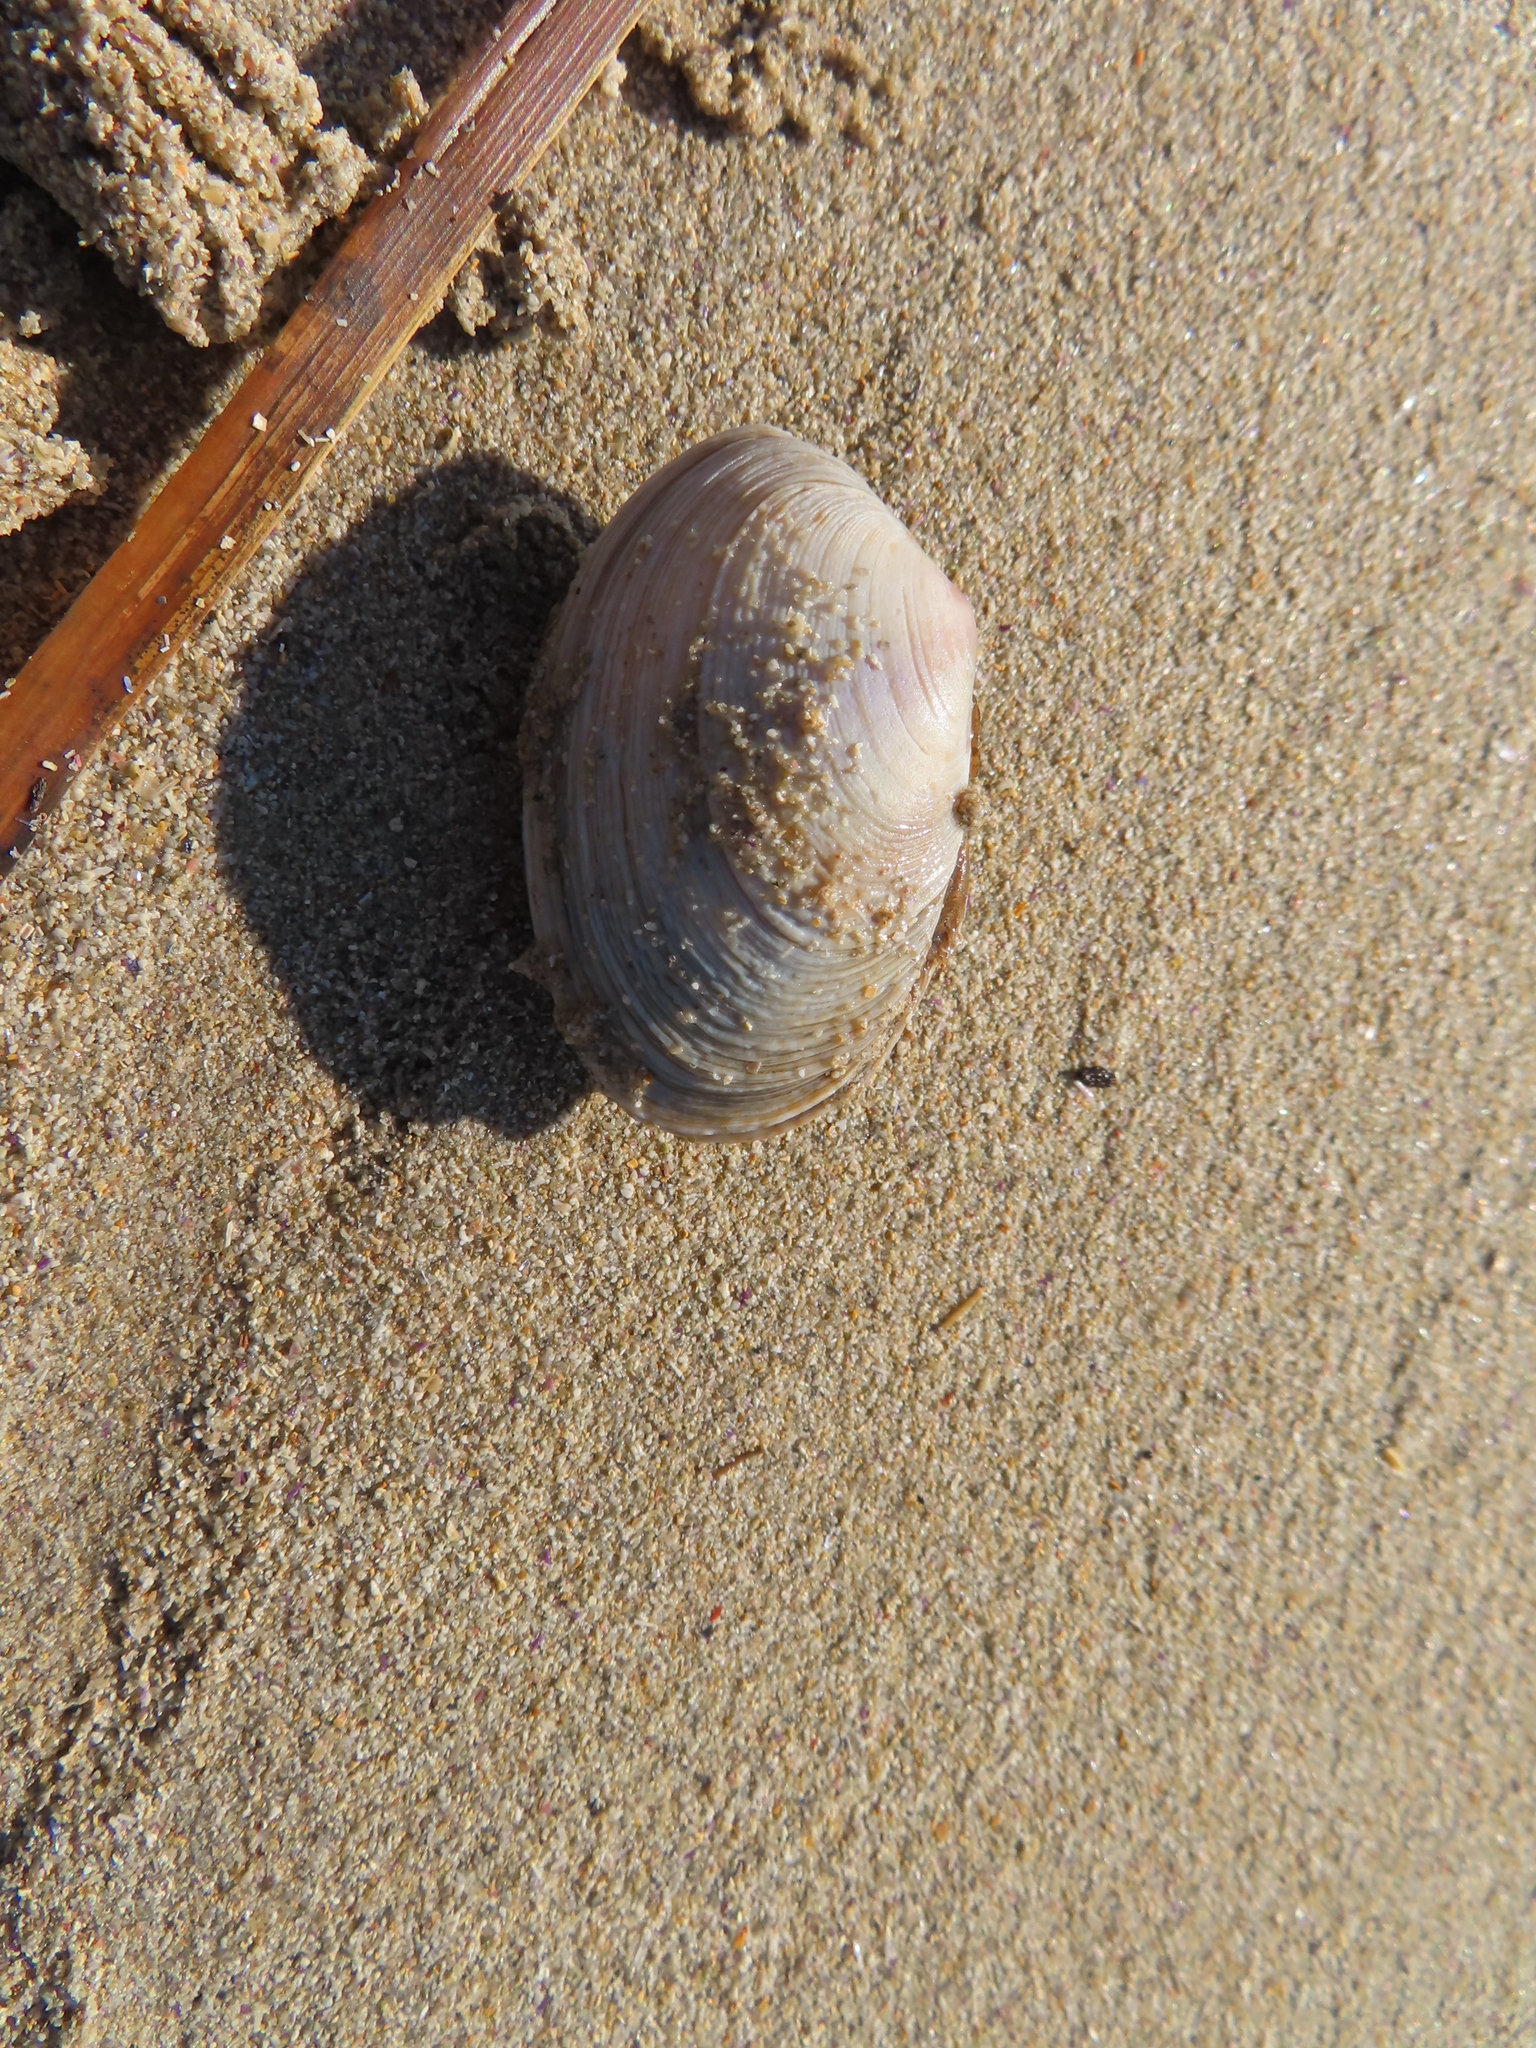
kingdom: Animalia
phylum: Mollusca
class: Bivalvia
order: Cardiida
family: Tellinidae
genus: Pallidea
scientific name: Pallidea palliderosea
